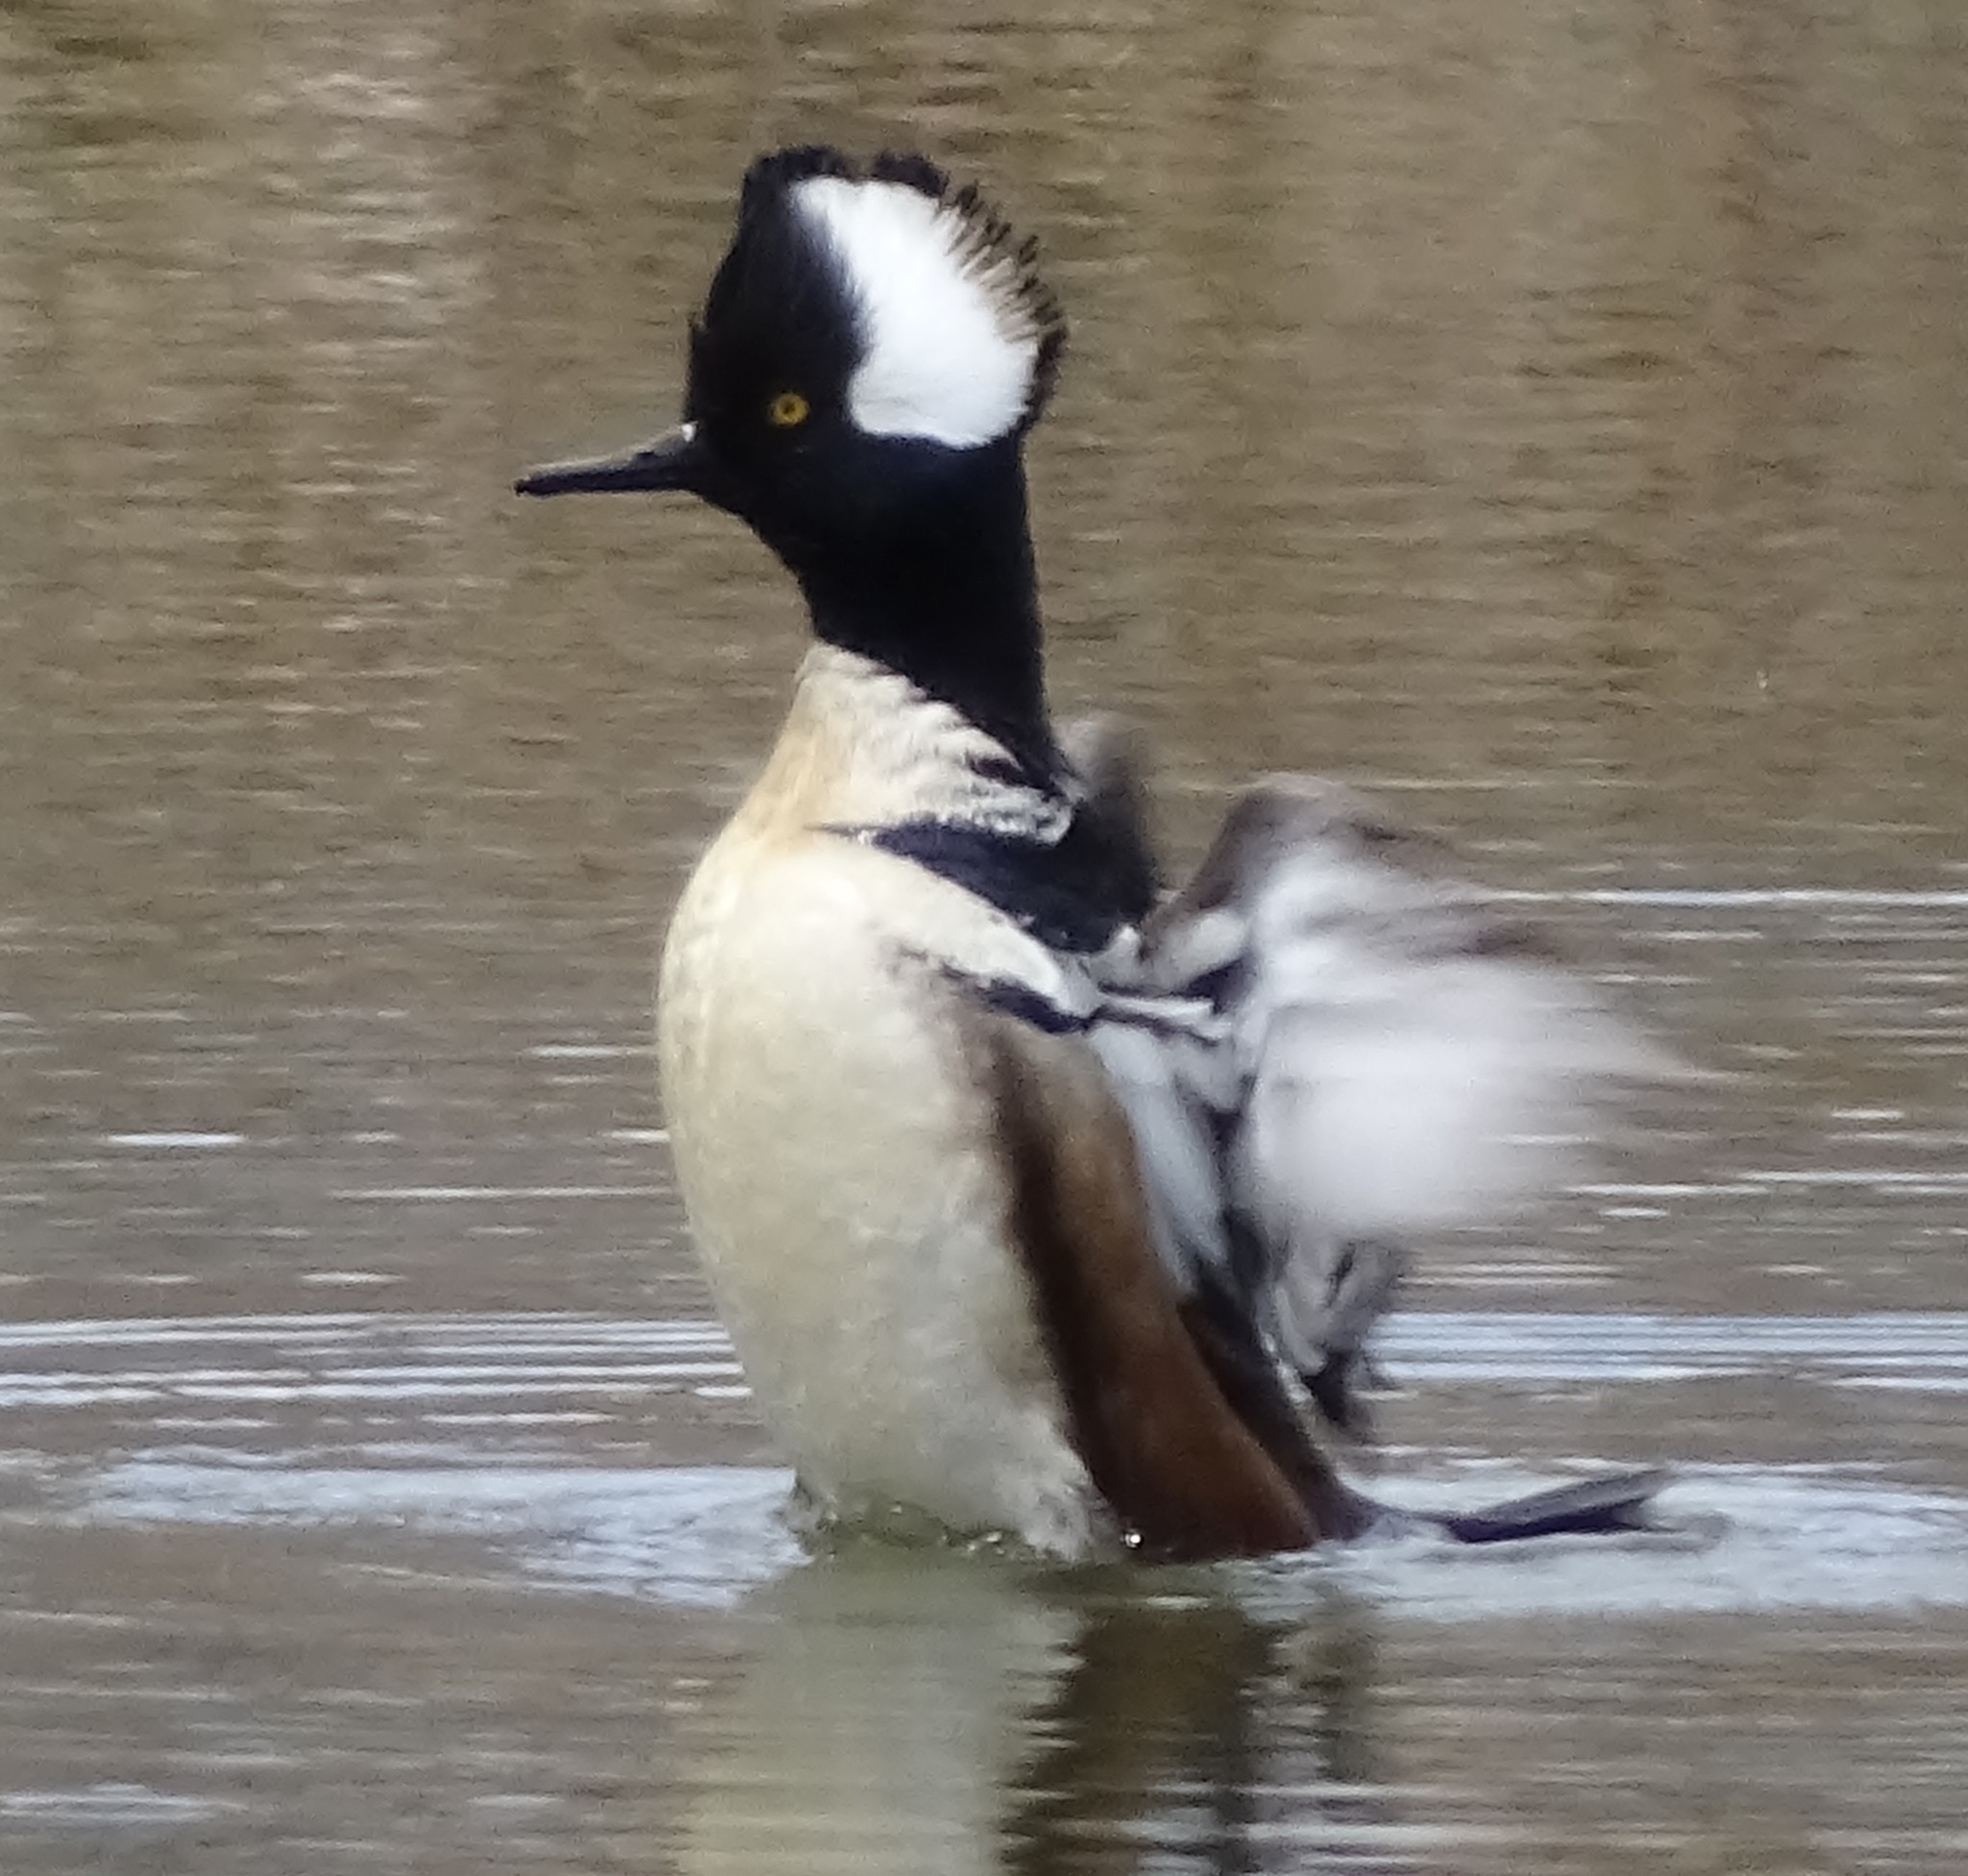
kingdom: Animalia
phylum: Chordata
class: Aves
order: Anseriformes
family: Anatidae
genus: Lophodytes
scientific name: Lophodytes cucullatus
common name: Hooded merganser
